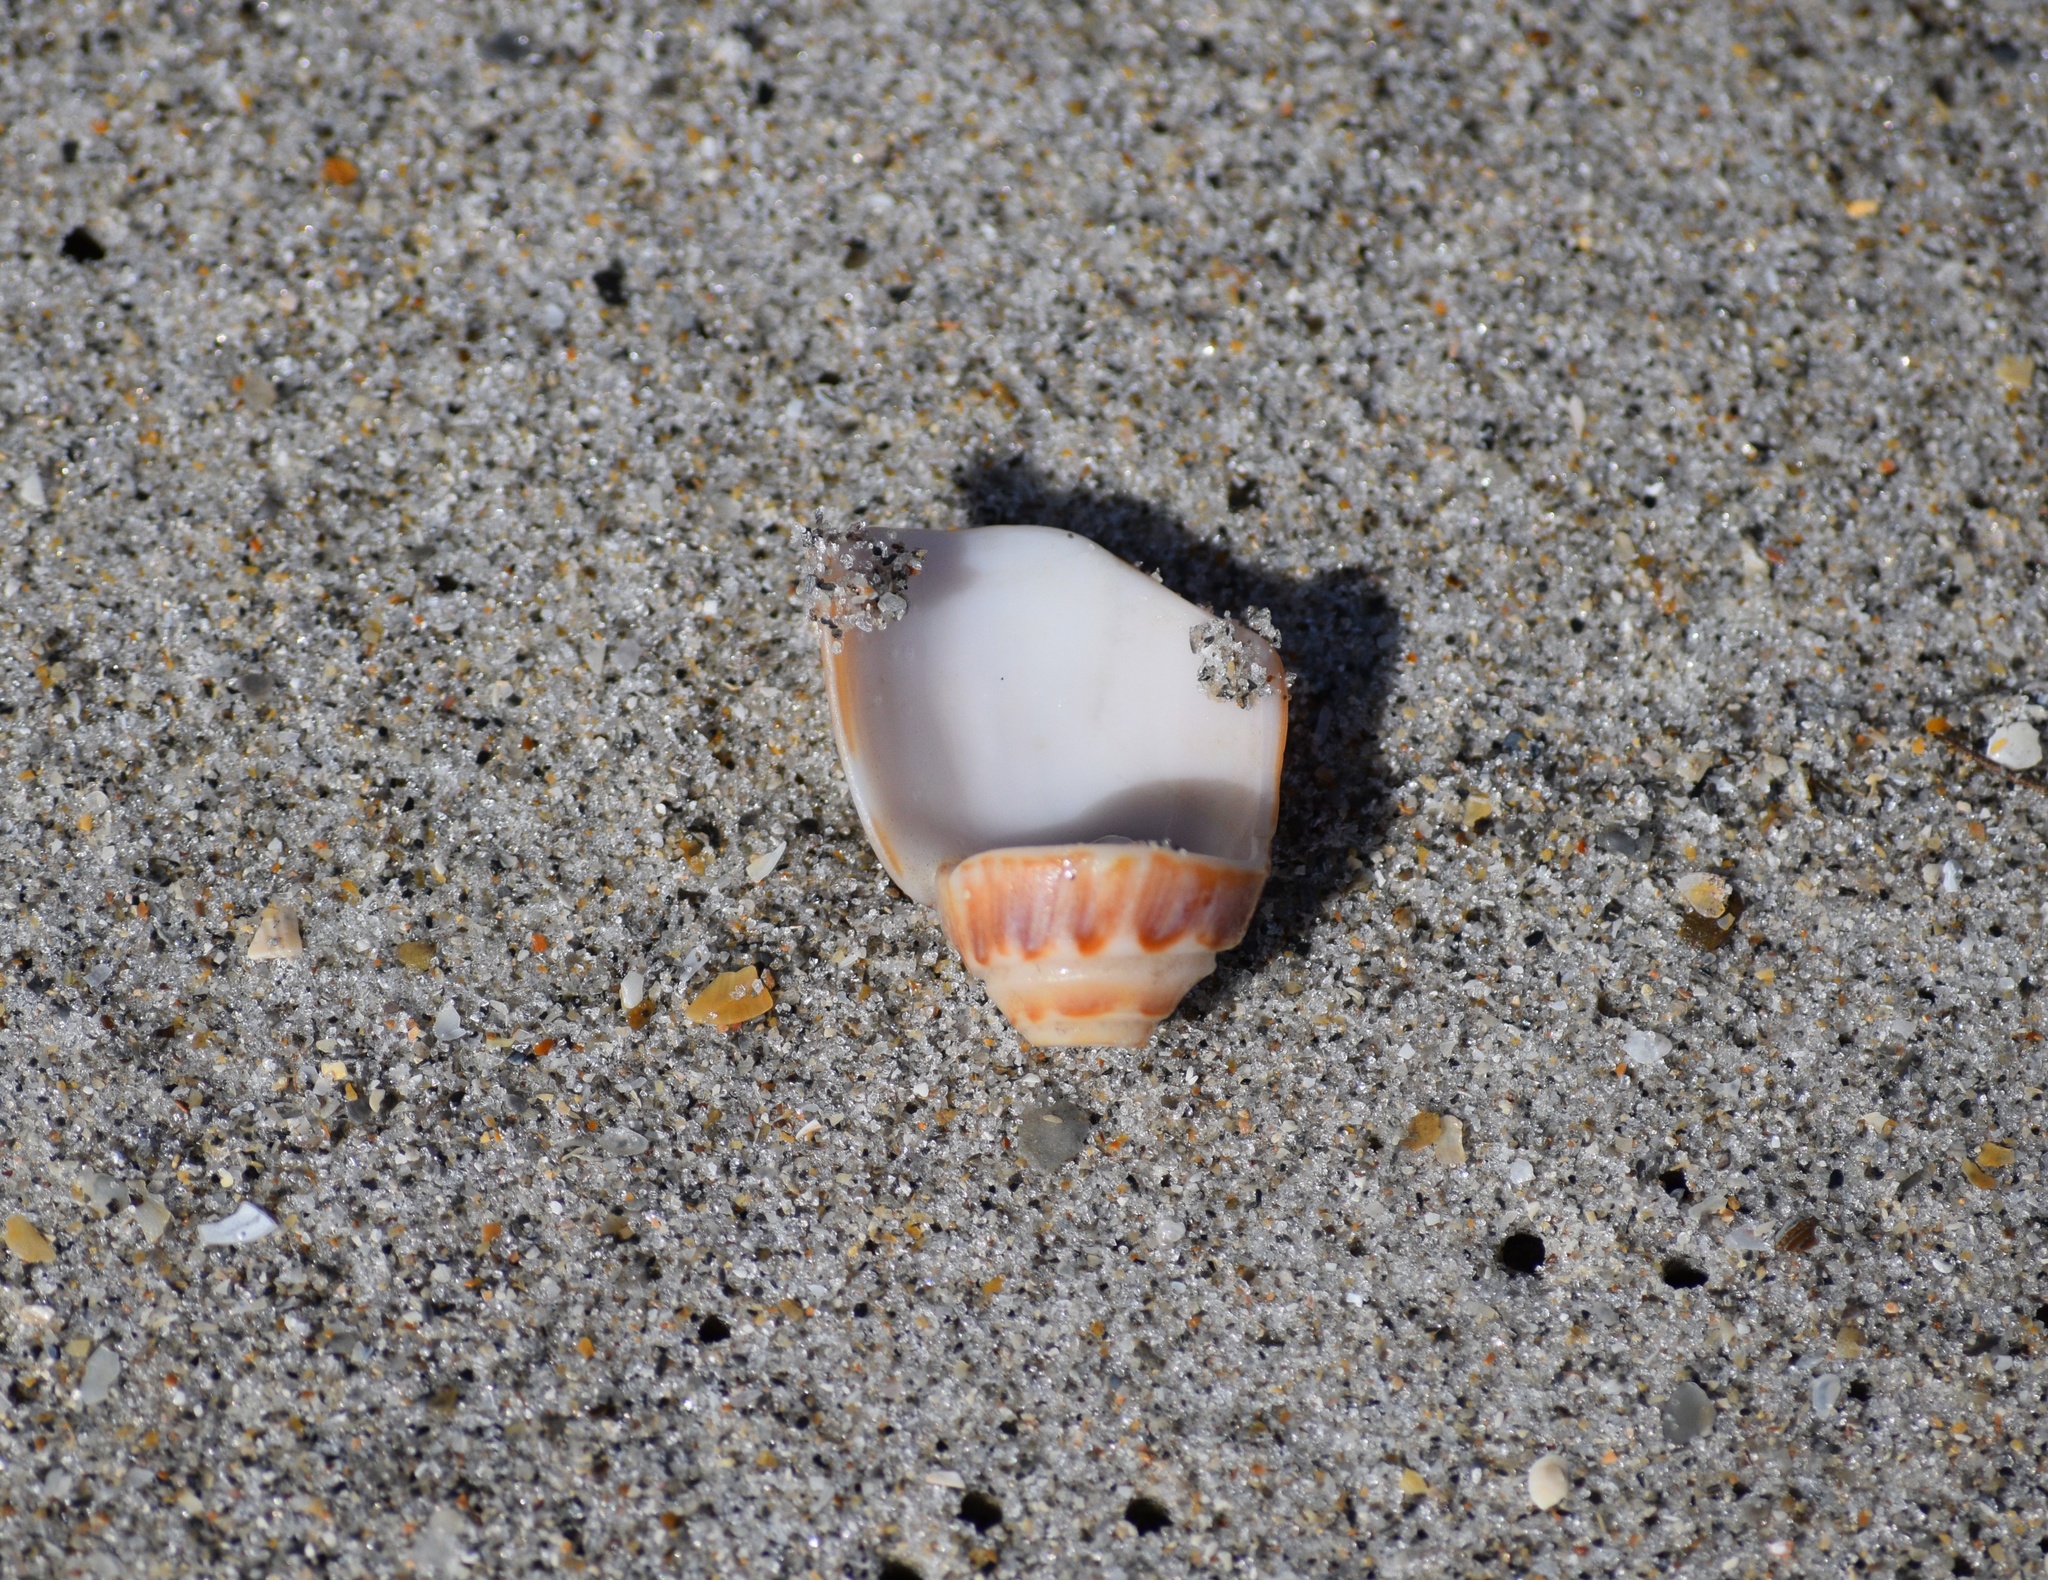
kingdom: Animalia
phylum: Mollusca
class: Gastropoda
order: Neogastropoda
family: Olividae
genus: Oliva
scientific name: Oliva sayana
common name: Lettered olive
